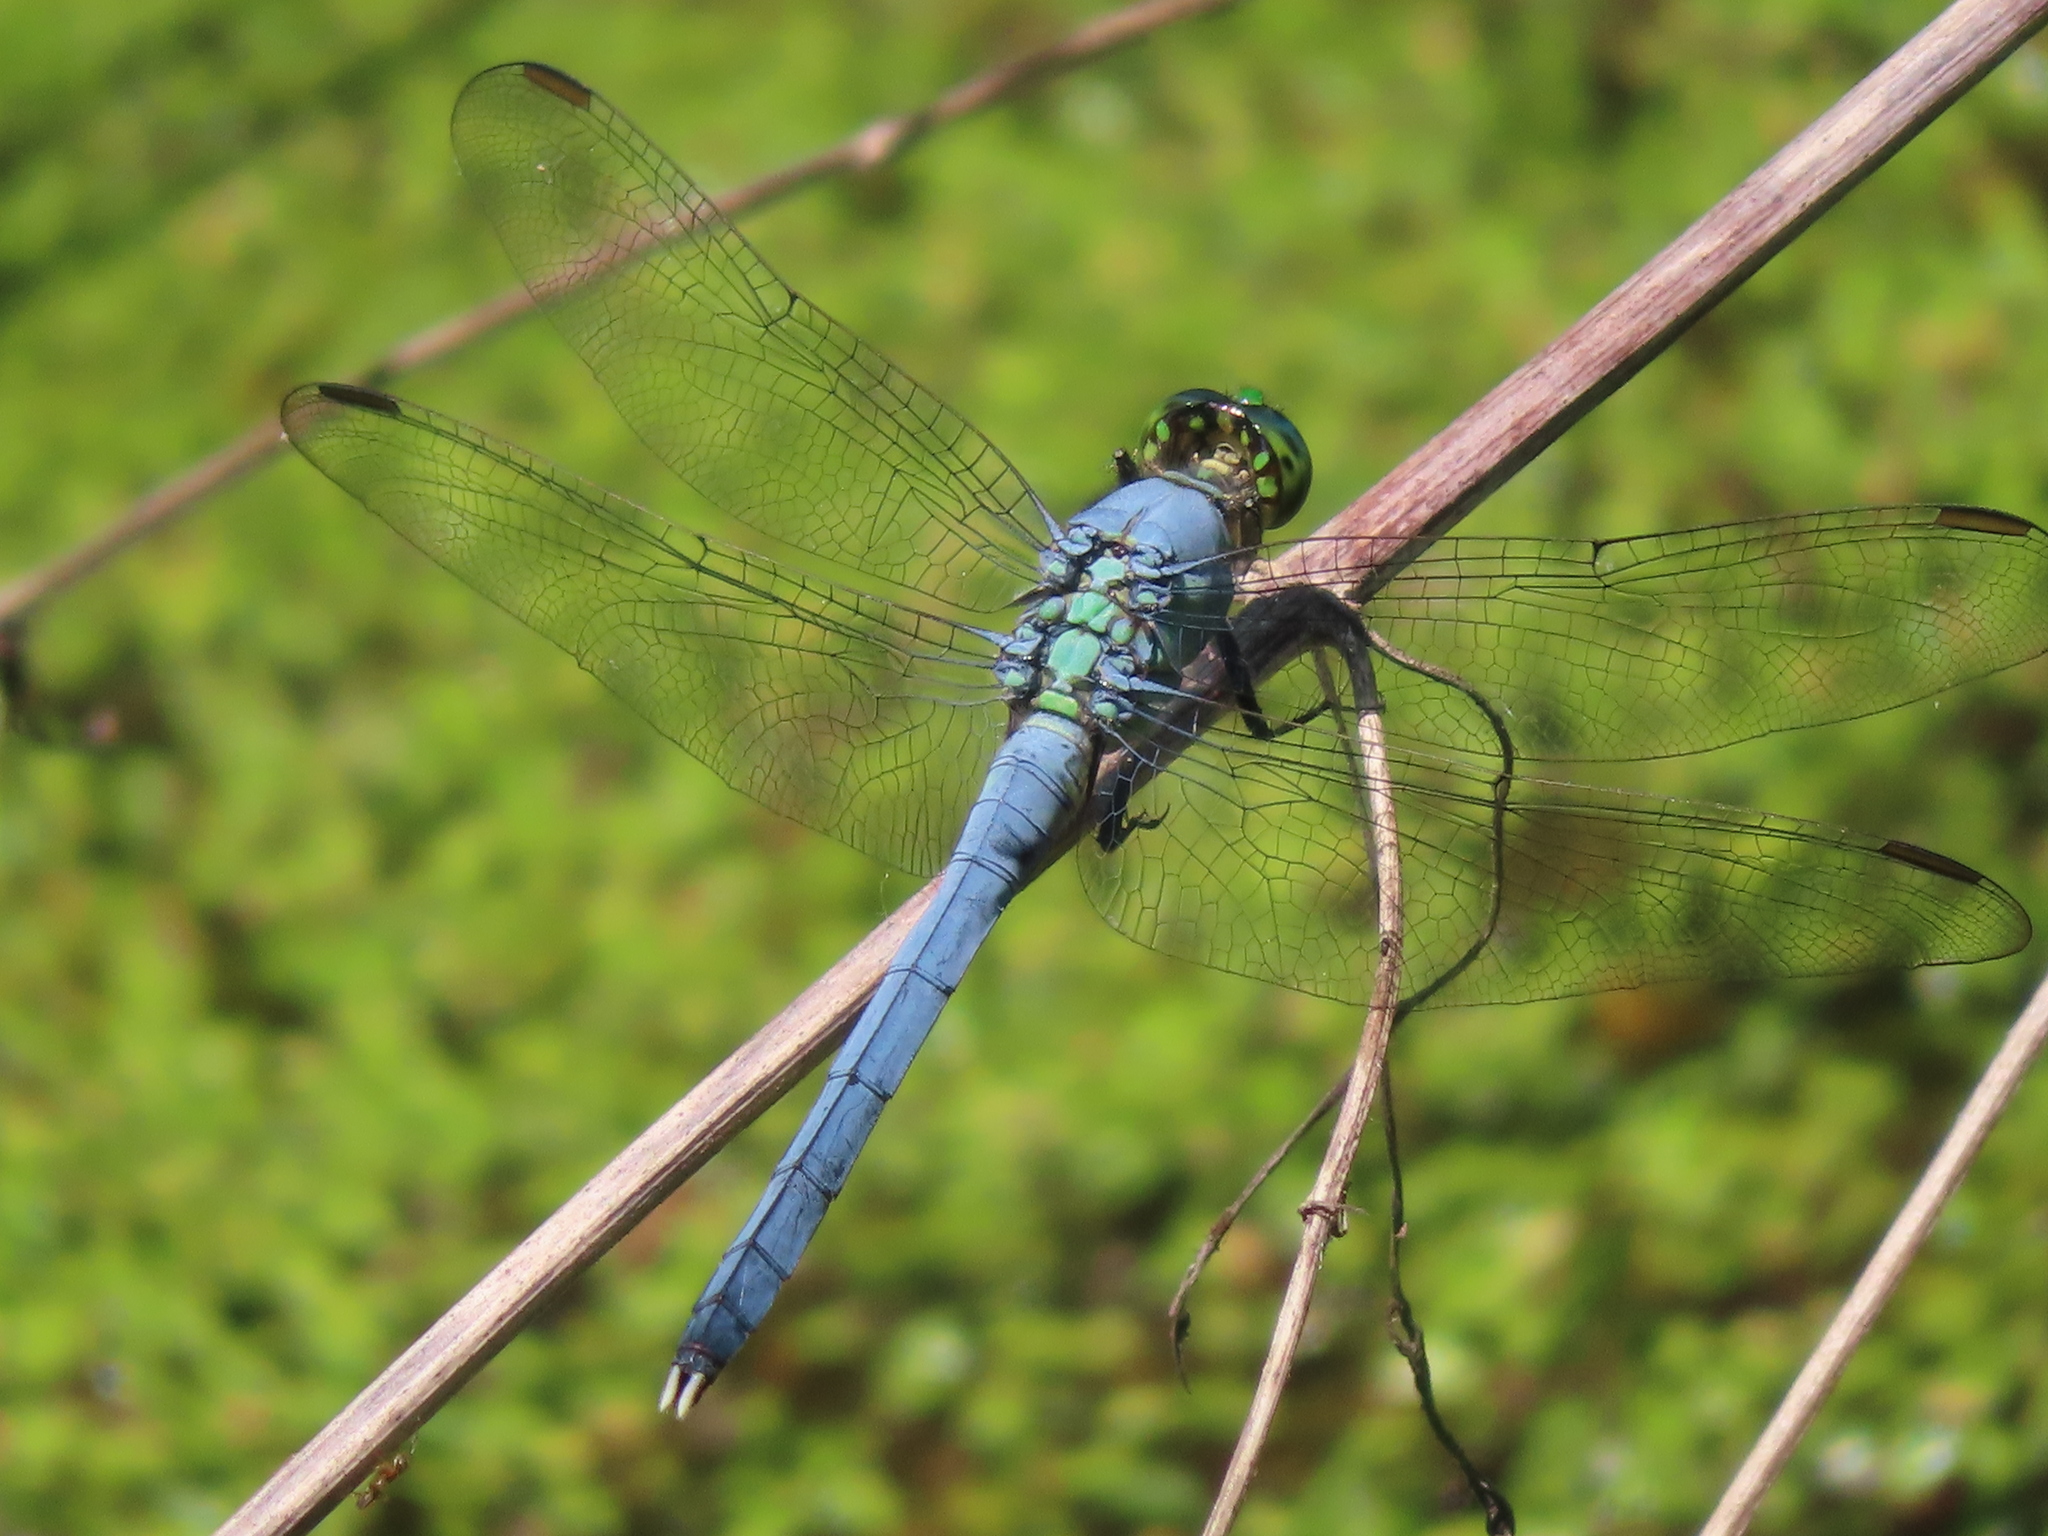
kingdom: Animalia
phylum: Arthropoda
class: Insecta
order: Odonata
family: Libellulidae
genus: Erythemis
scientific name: Erythemis simplicicollis
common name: Eastern pondhawk
